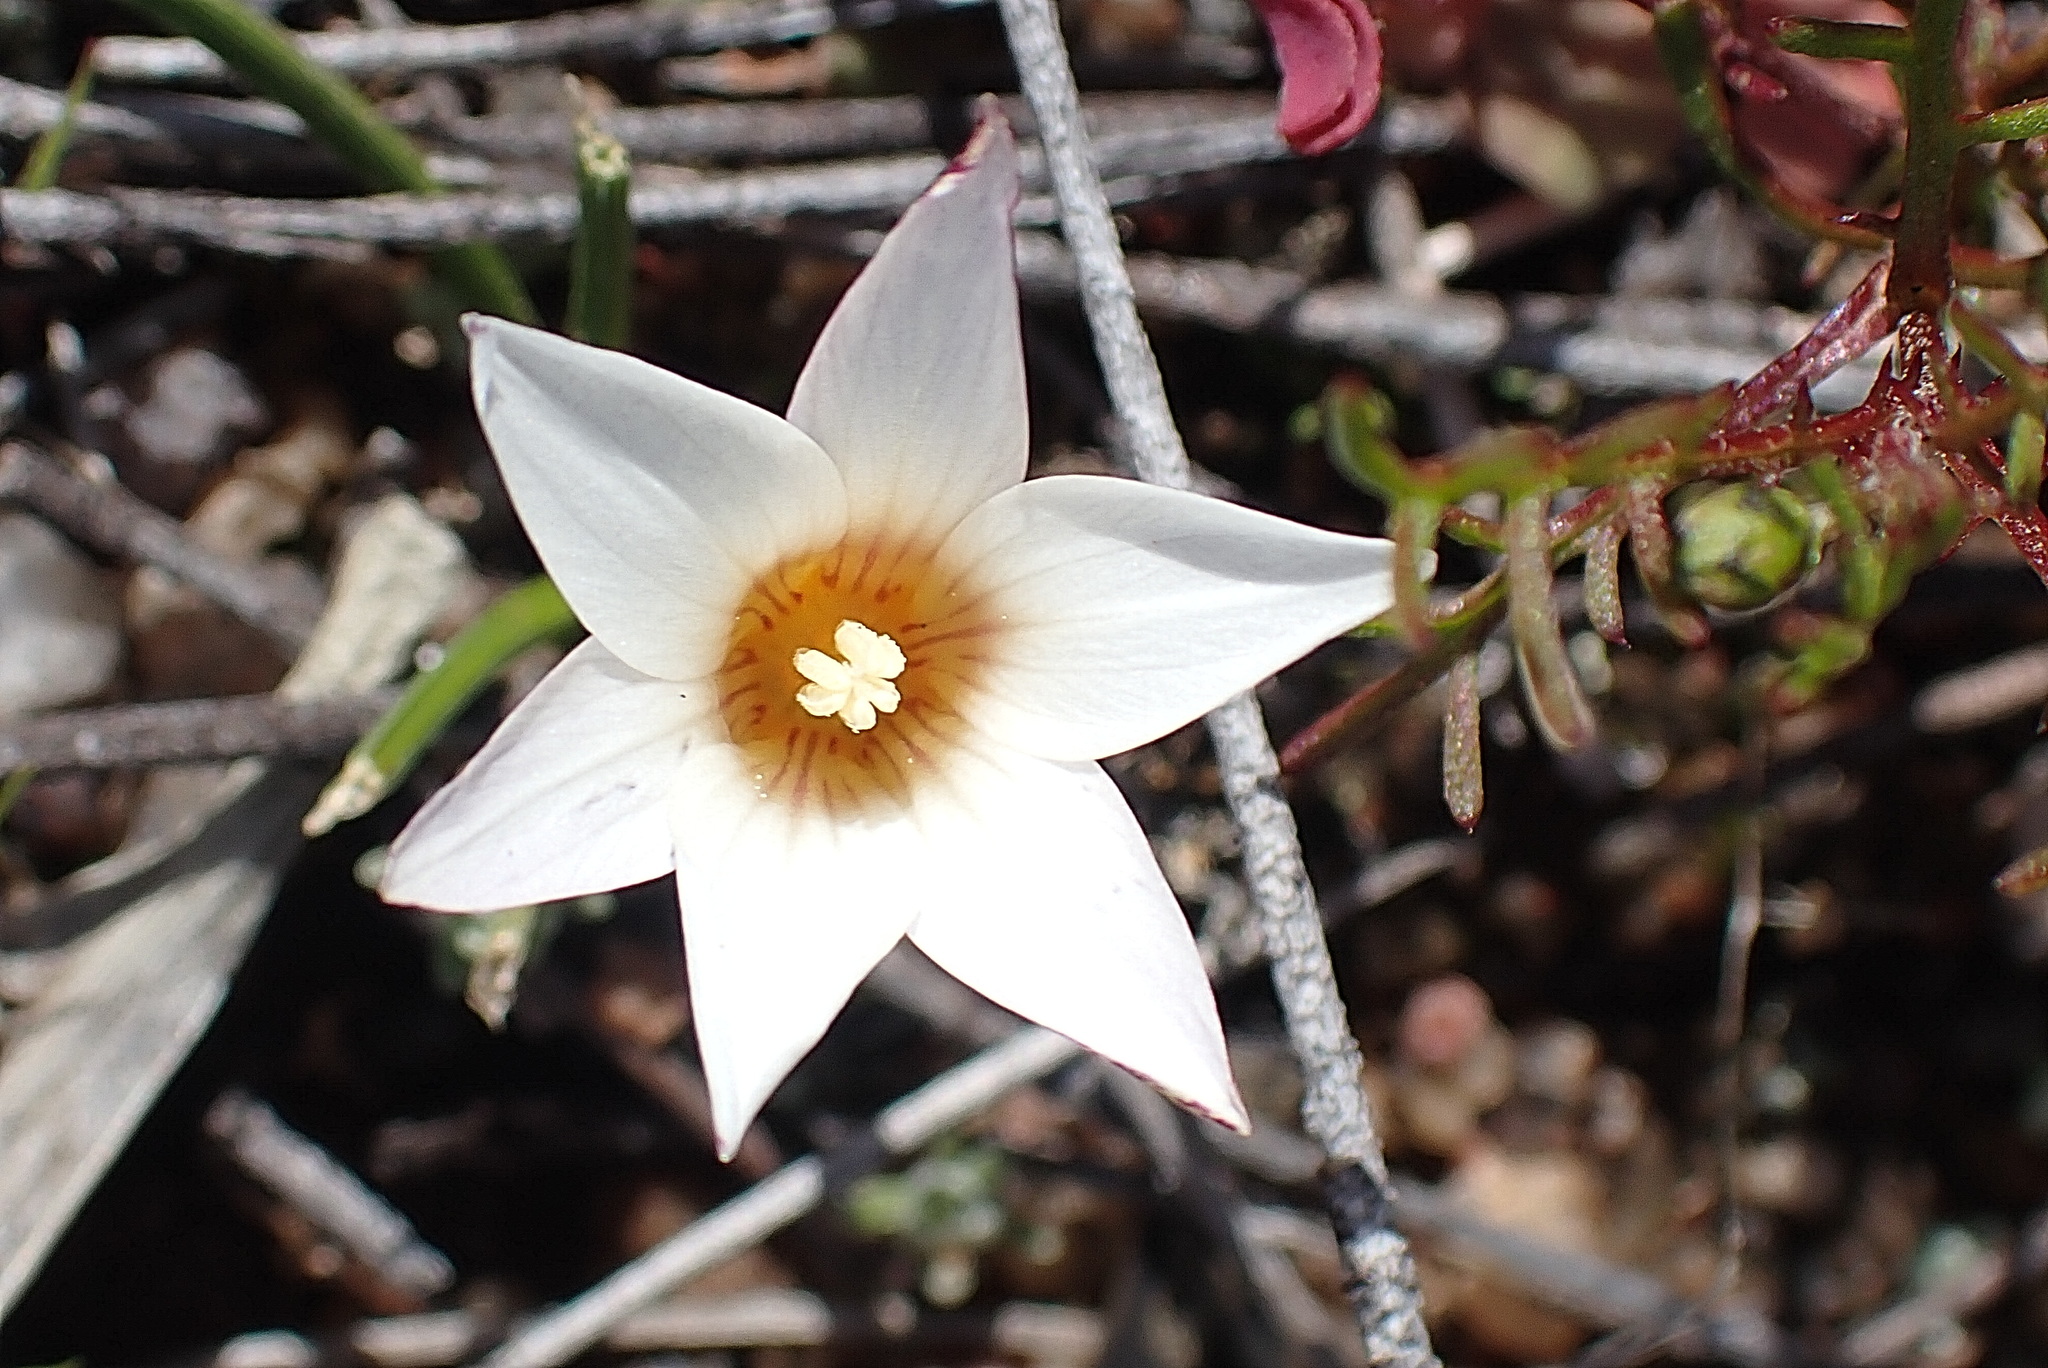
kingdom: Plantae
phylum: Tracheophyta
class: Liliopsida
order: Asparagales
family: Iridaceae
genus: Romulea
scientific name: Romulea toximontana
